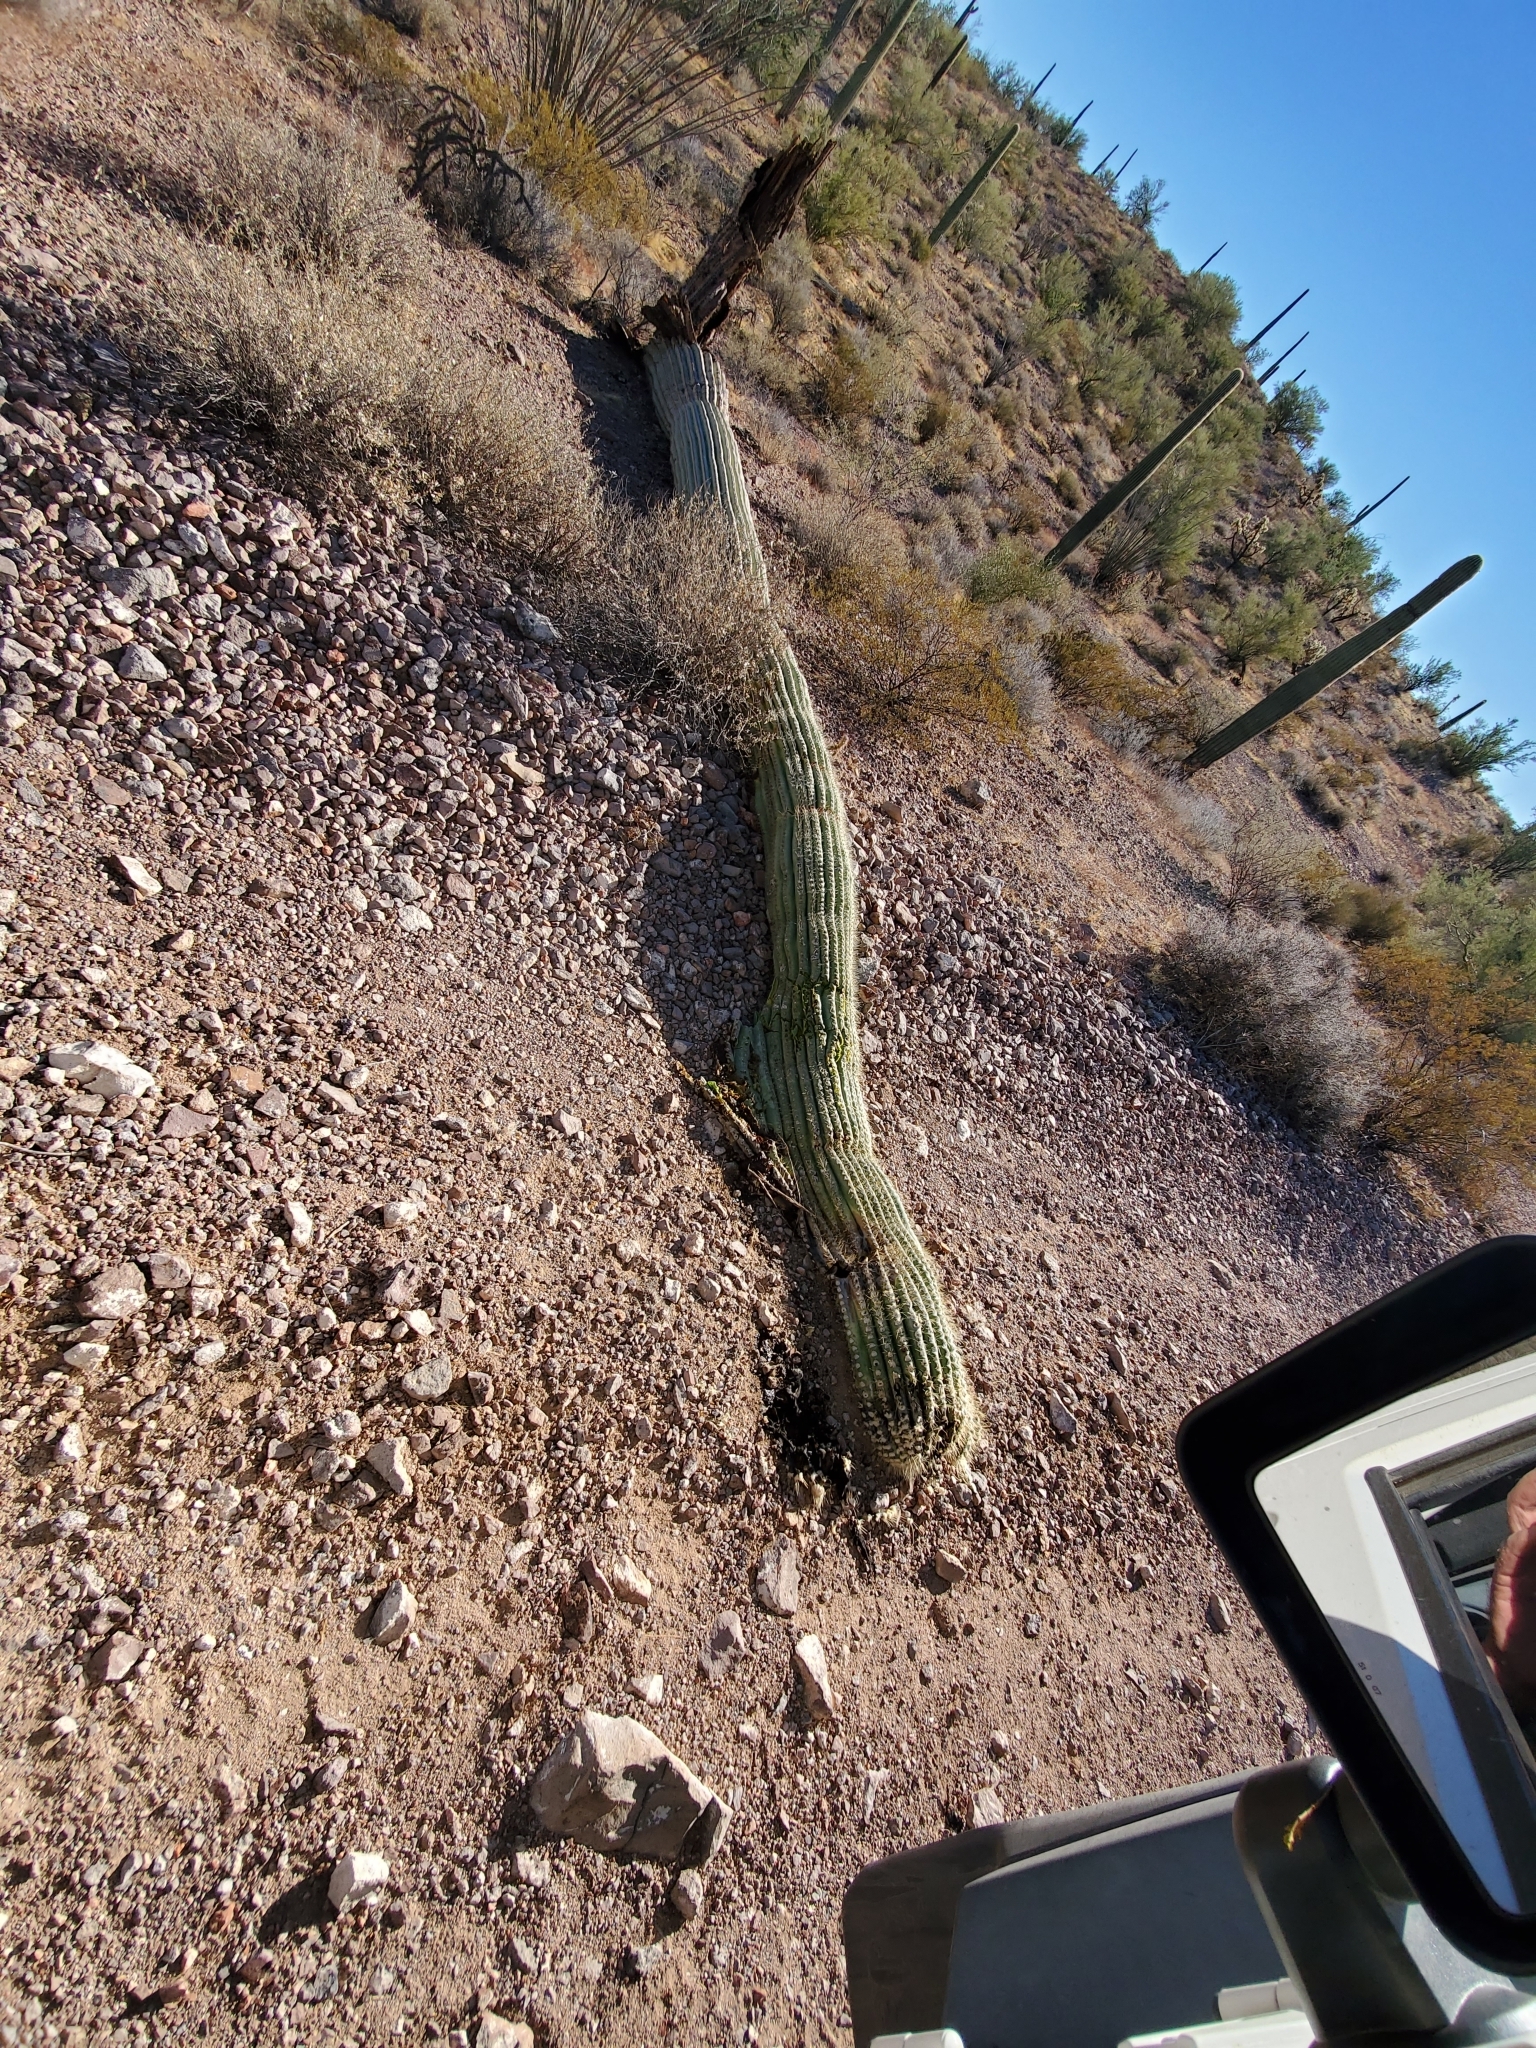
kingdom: Plantae
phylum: Tracheophyta
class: Magnoliopsida
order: Caryophyllales
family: Cactaceae
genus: Carnegiea
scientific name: Carnegiea gigantea
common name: Saguaro
